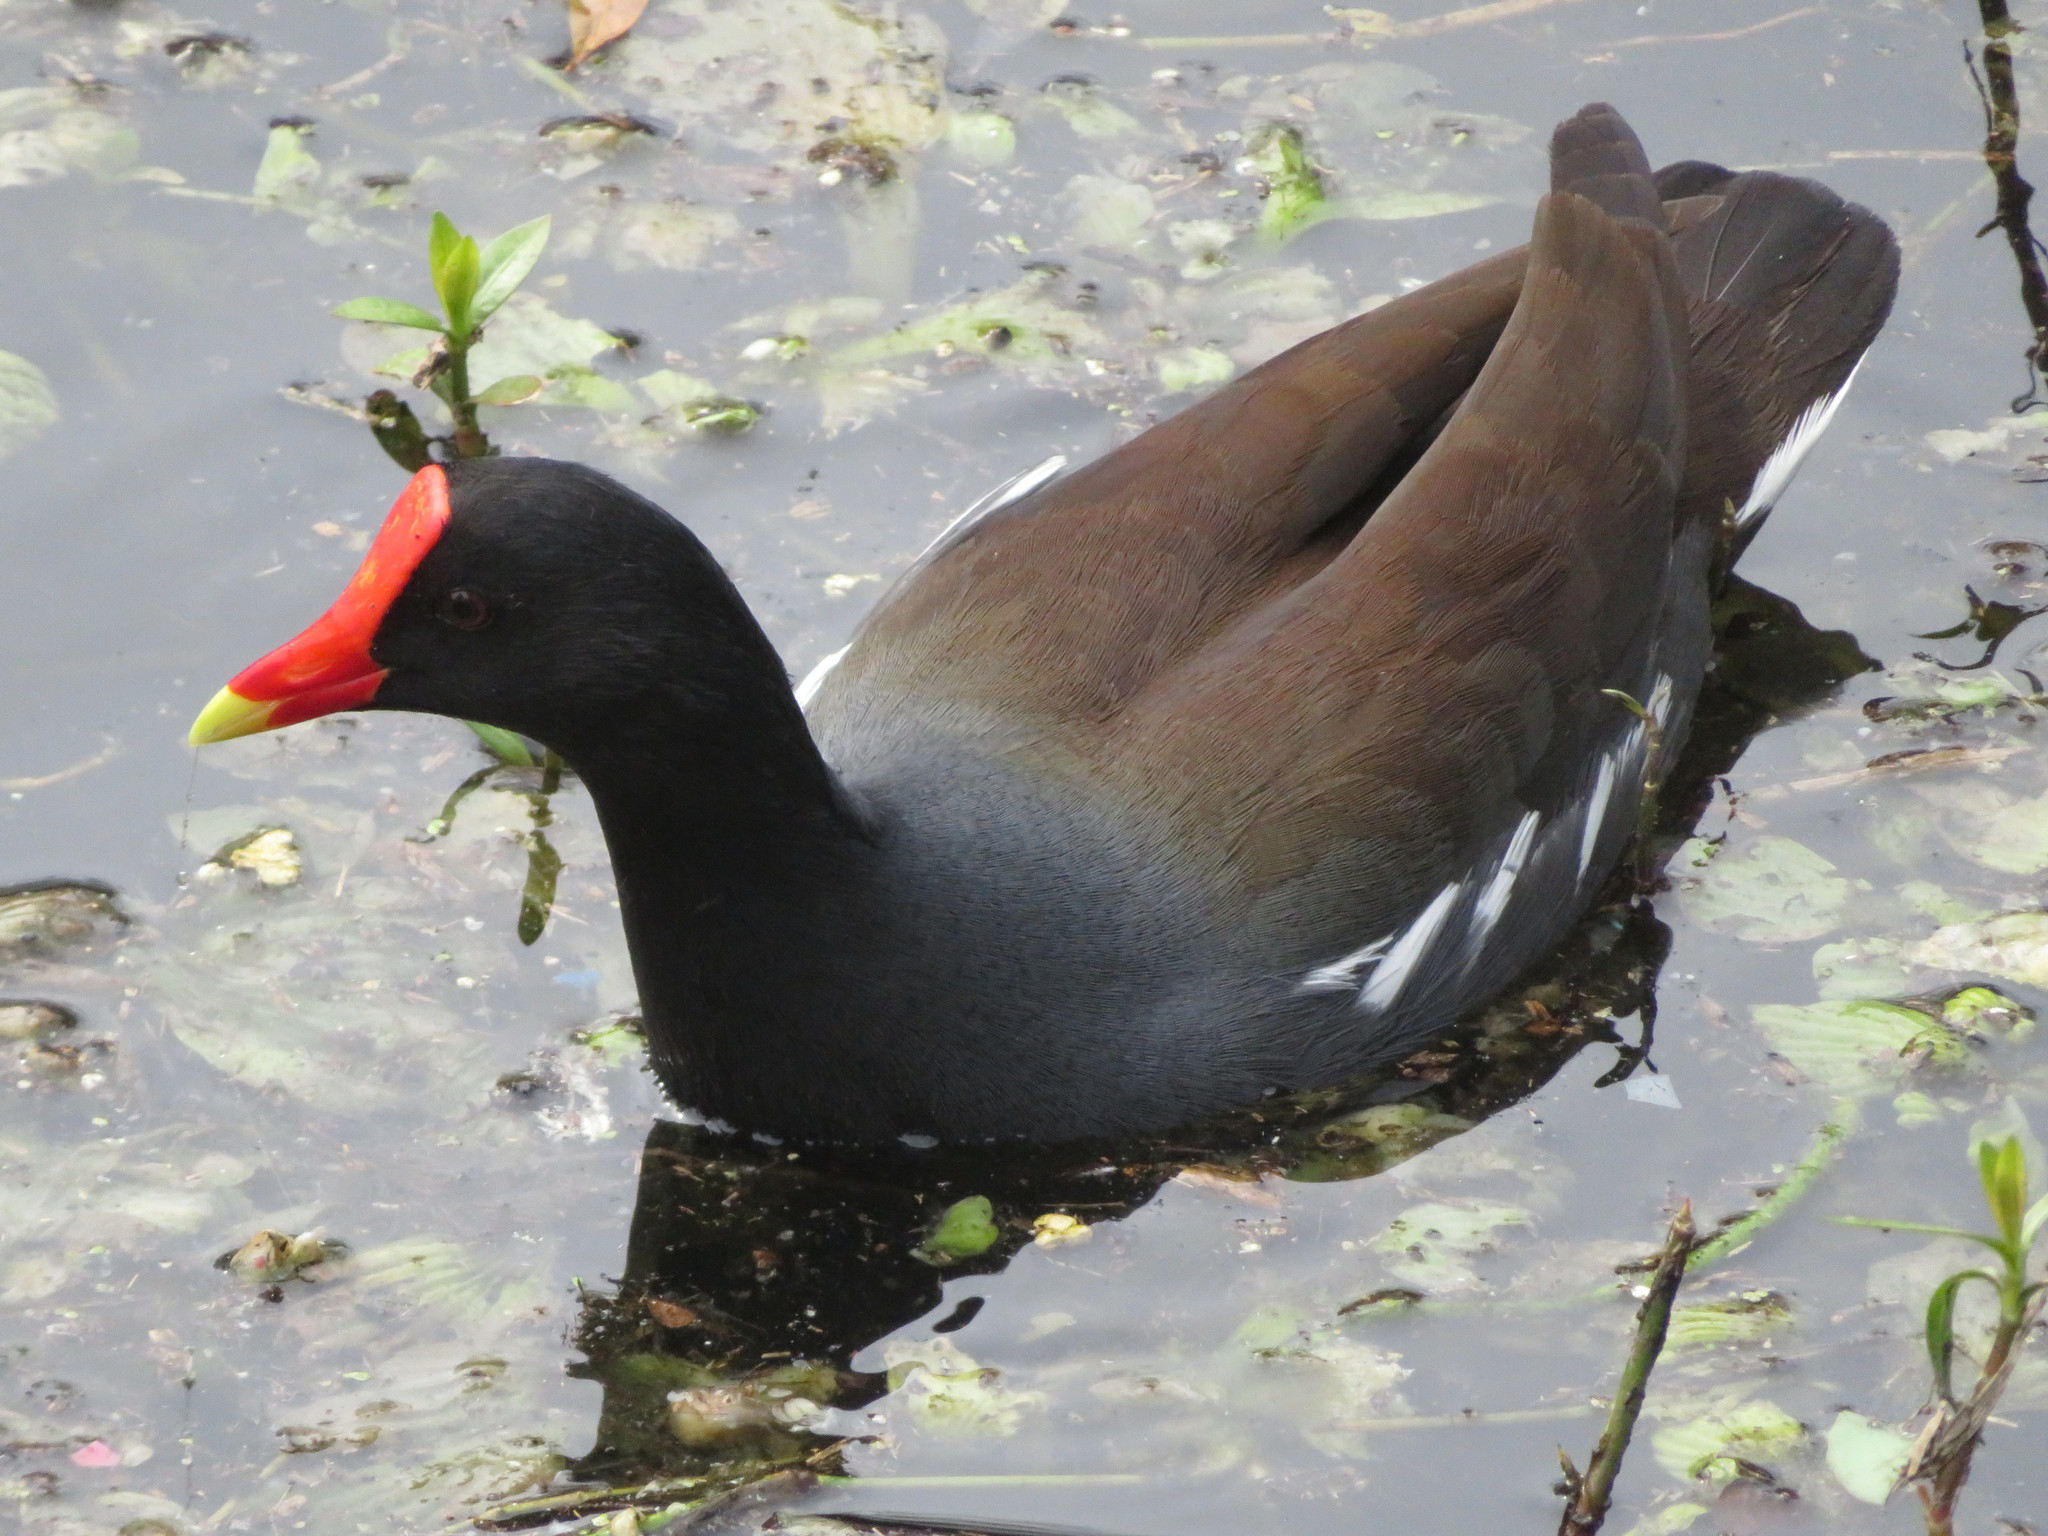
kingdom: Animalia
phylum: Chordata
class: Aves
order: Gruiformes
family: Rallidae
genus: Gallinula
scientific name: Gallinula chloropus
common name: Common moorhen
